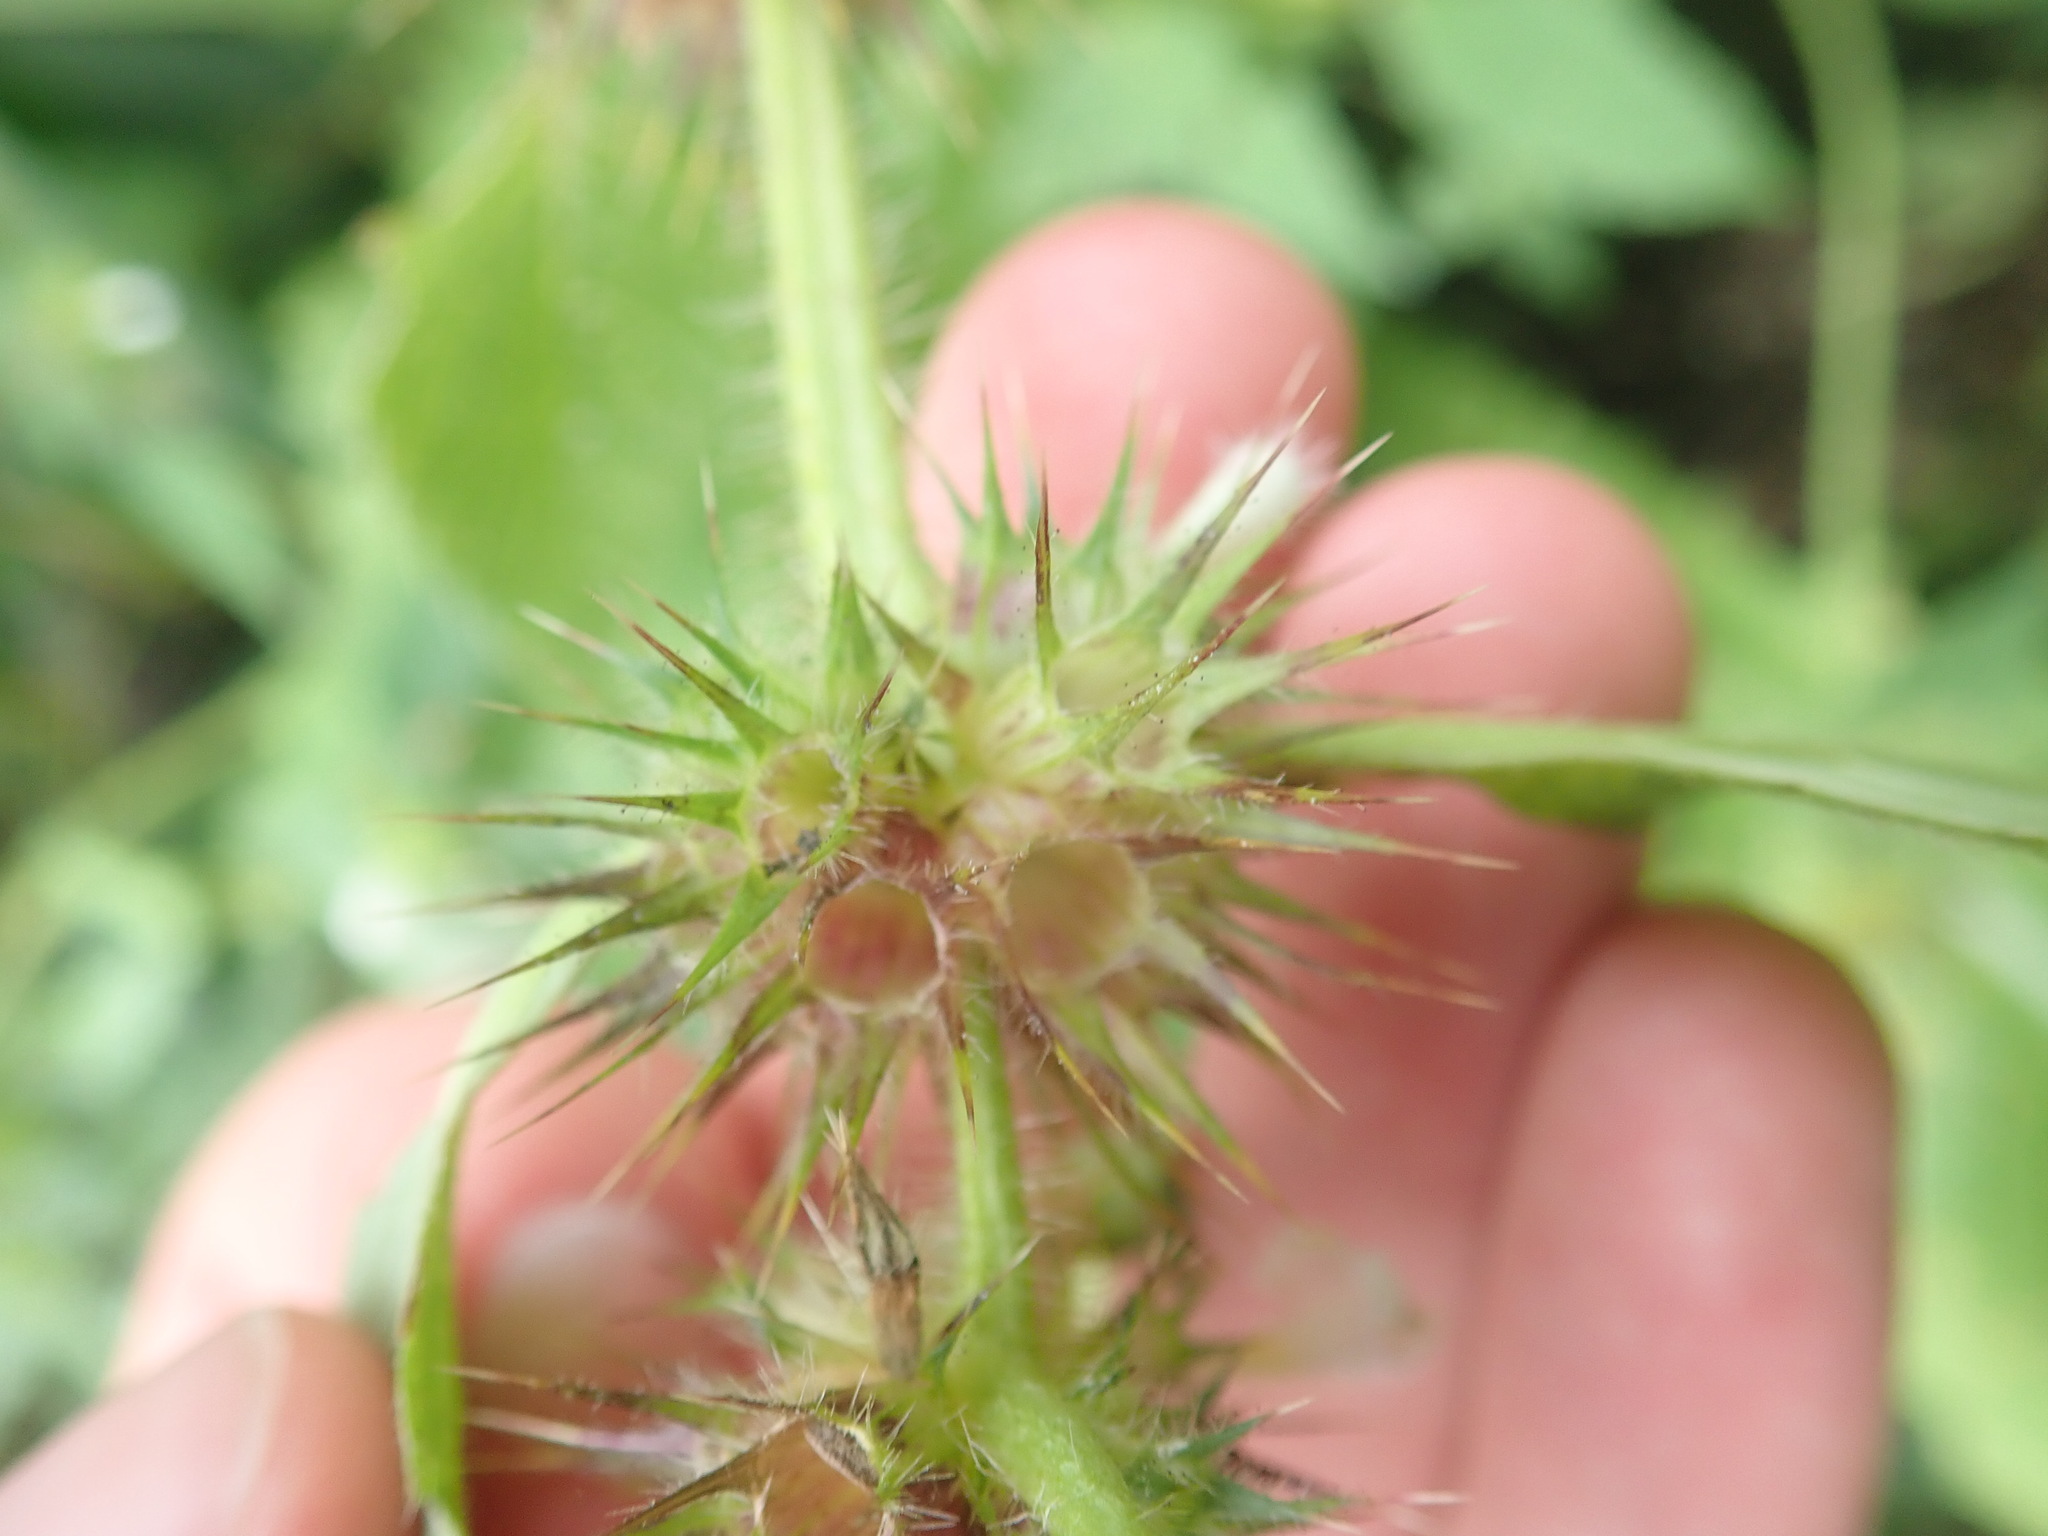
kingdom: Plantae
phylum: Tracheophyta
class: Magnoliopsida
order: Lamiales
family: Lamiaceae
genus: Galeopsis
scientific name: Galeopsis tetrahit
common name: Common hemp-nettle
